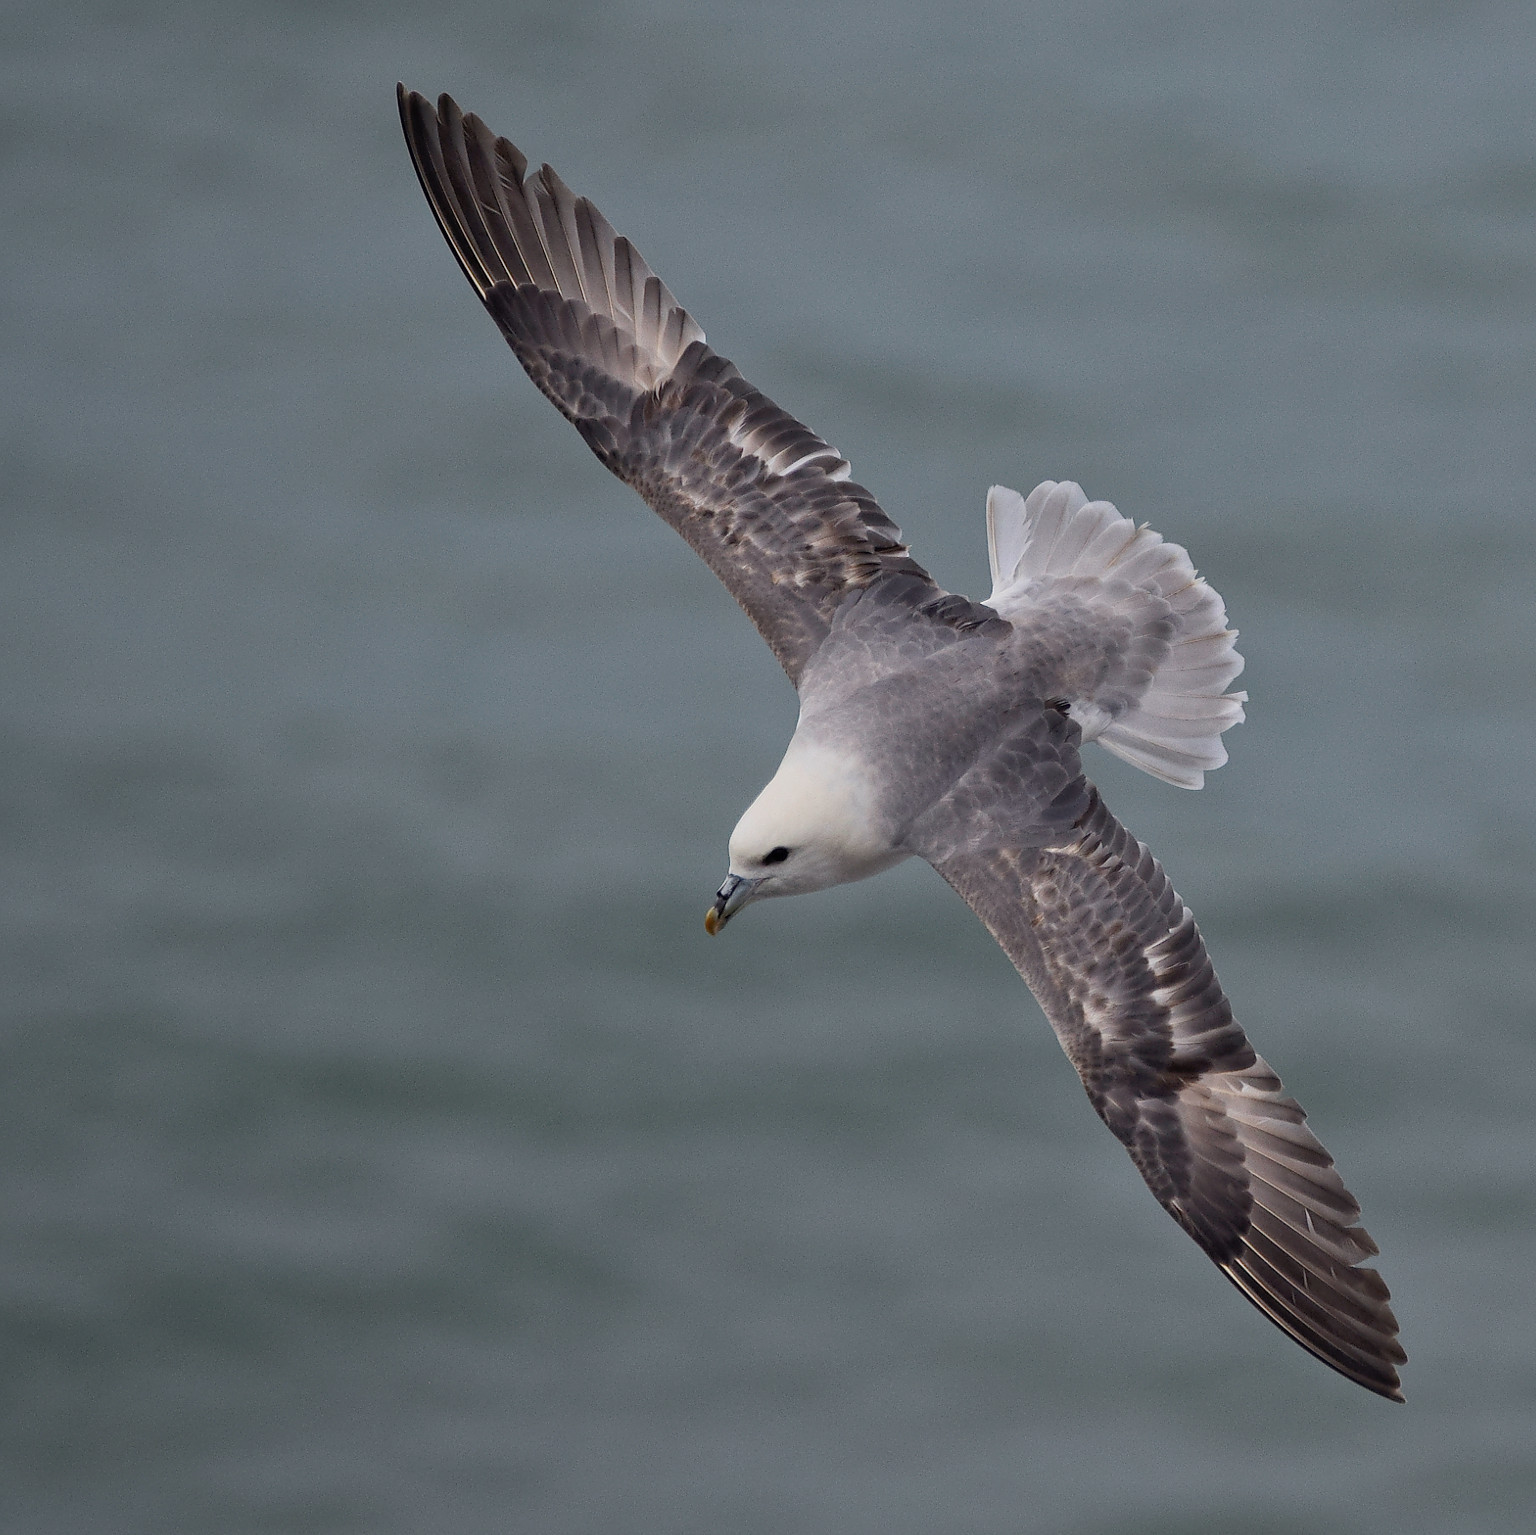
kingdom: Animalia
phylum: Chordata
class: Aves
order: Procellariiformes
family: Procellariidae
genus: Fulmarus
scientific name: Fulmarus glacialis
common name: Northern fulmar
